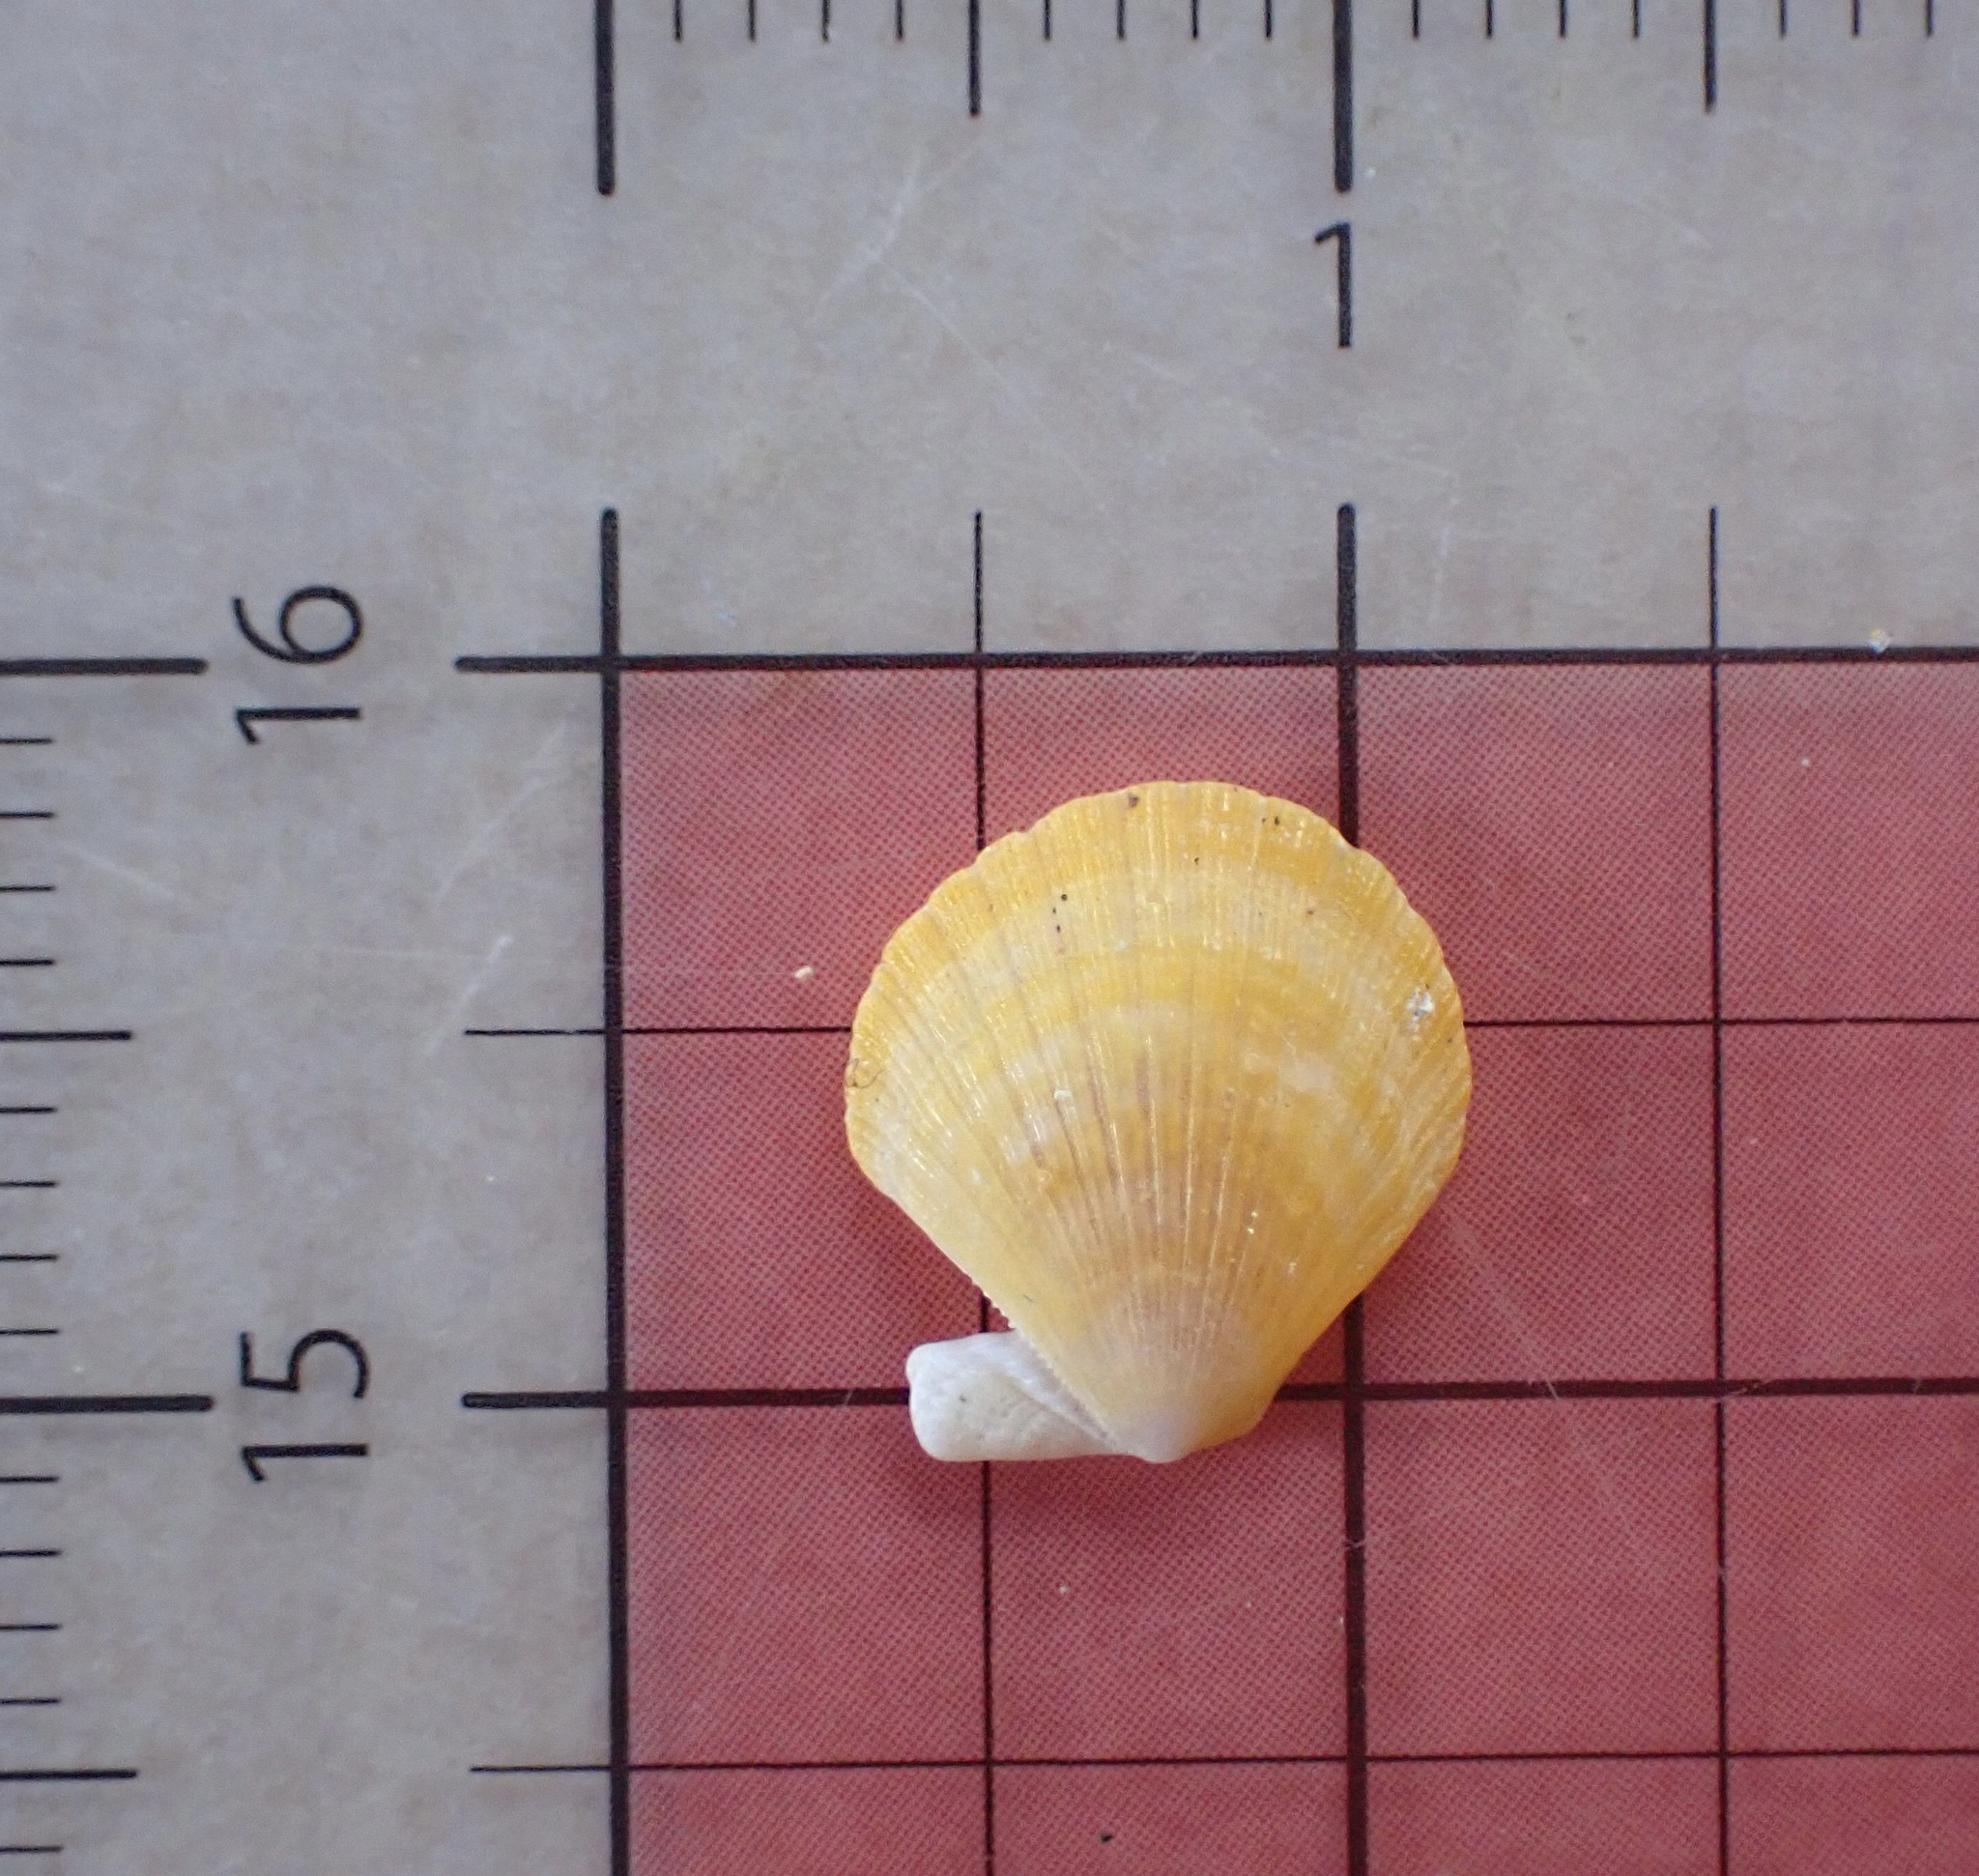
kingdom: Animalia
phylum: Mollusca
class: Bivalvia
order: Pectinida
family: Pectinidae
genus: Pascahinnites
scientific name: Pascahinnites coruscans
